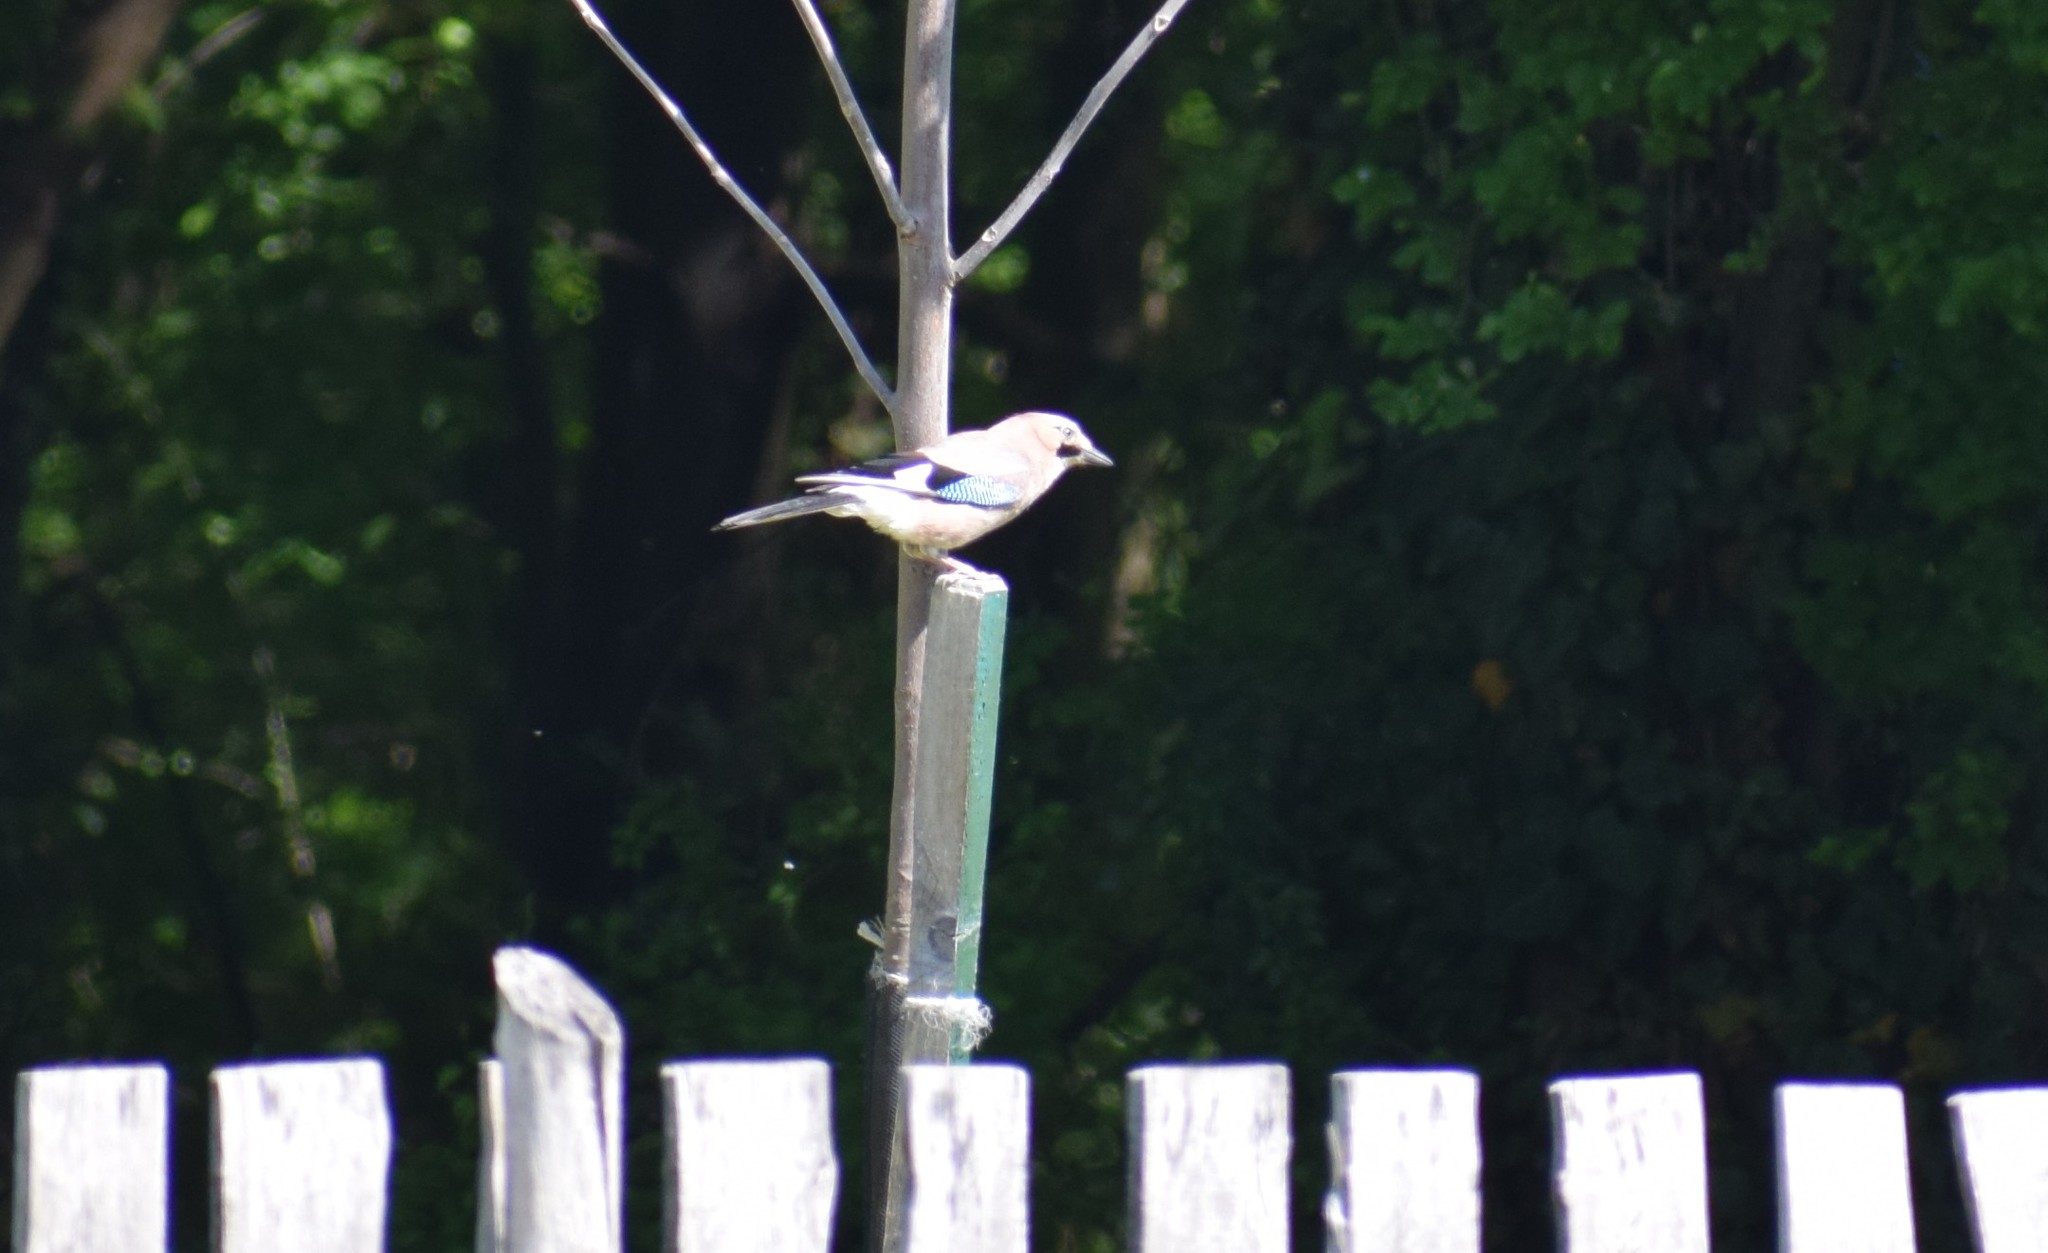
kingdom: Animalia
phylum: Chordata
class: Aves
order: Passeriformes
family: Corvidae
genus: Garrulus
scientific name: Garrulus glandarius
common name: Eurasian jay
